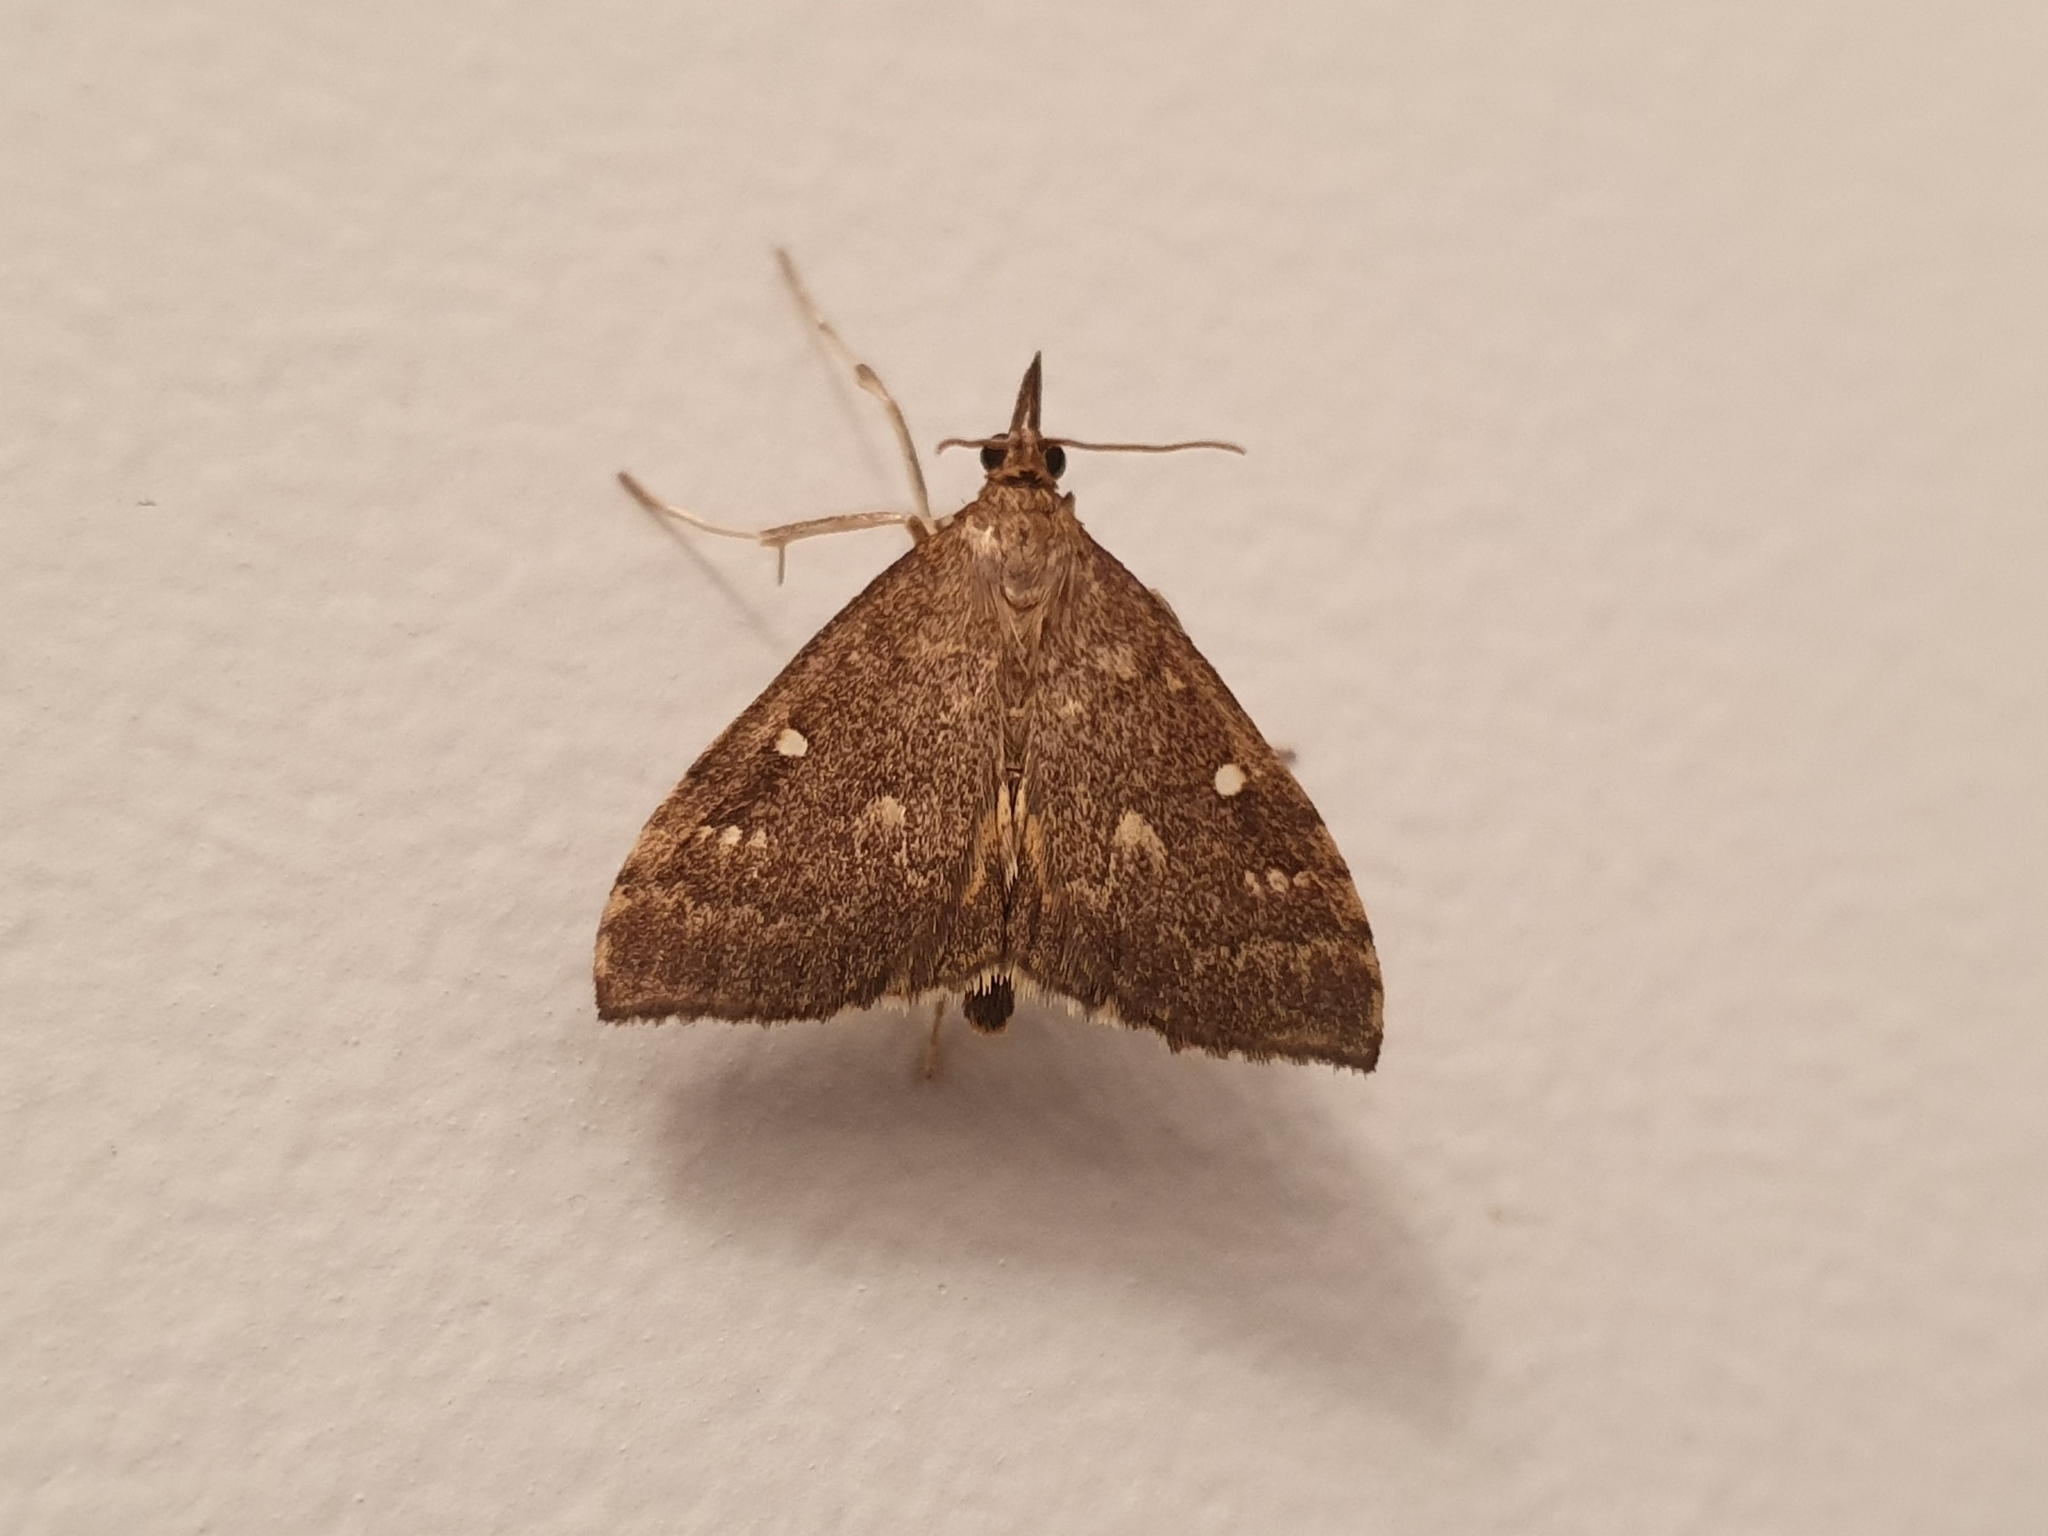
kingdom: Animalia
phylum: Arthropoda
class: Insecta
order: Lepidoptera
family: Crambidae
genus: Deana
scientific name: Deana hybreasalis
